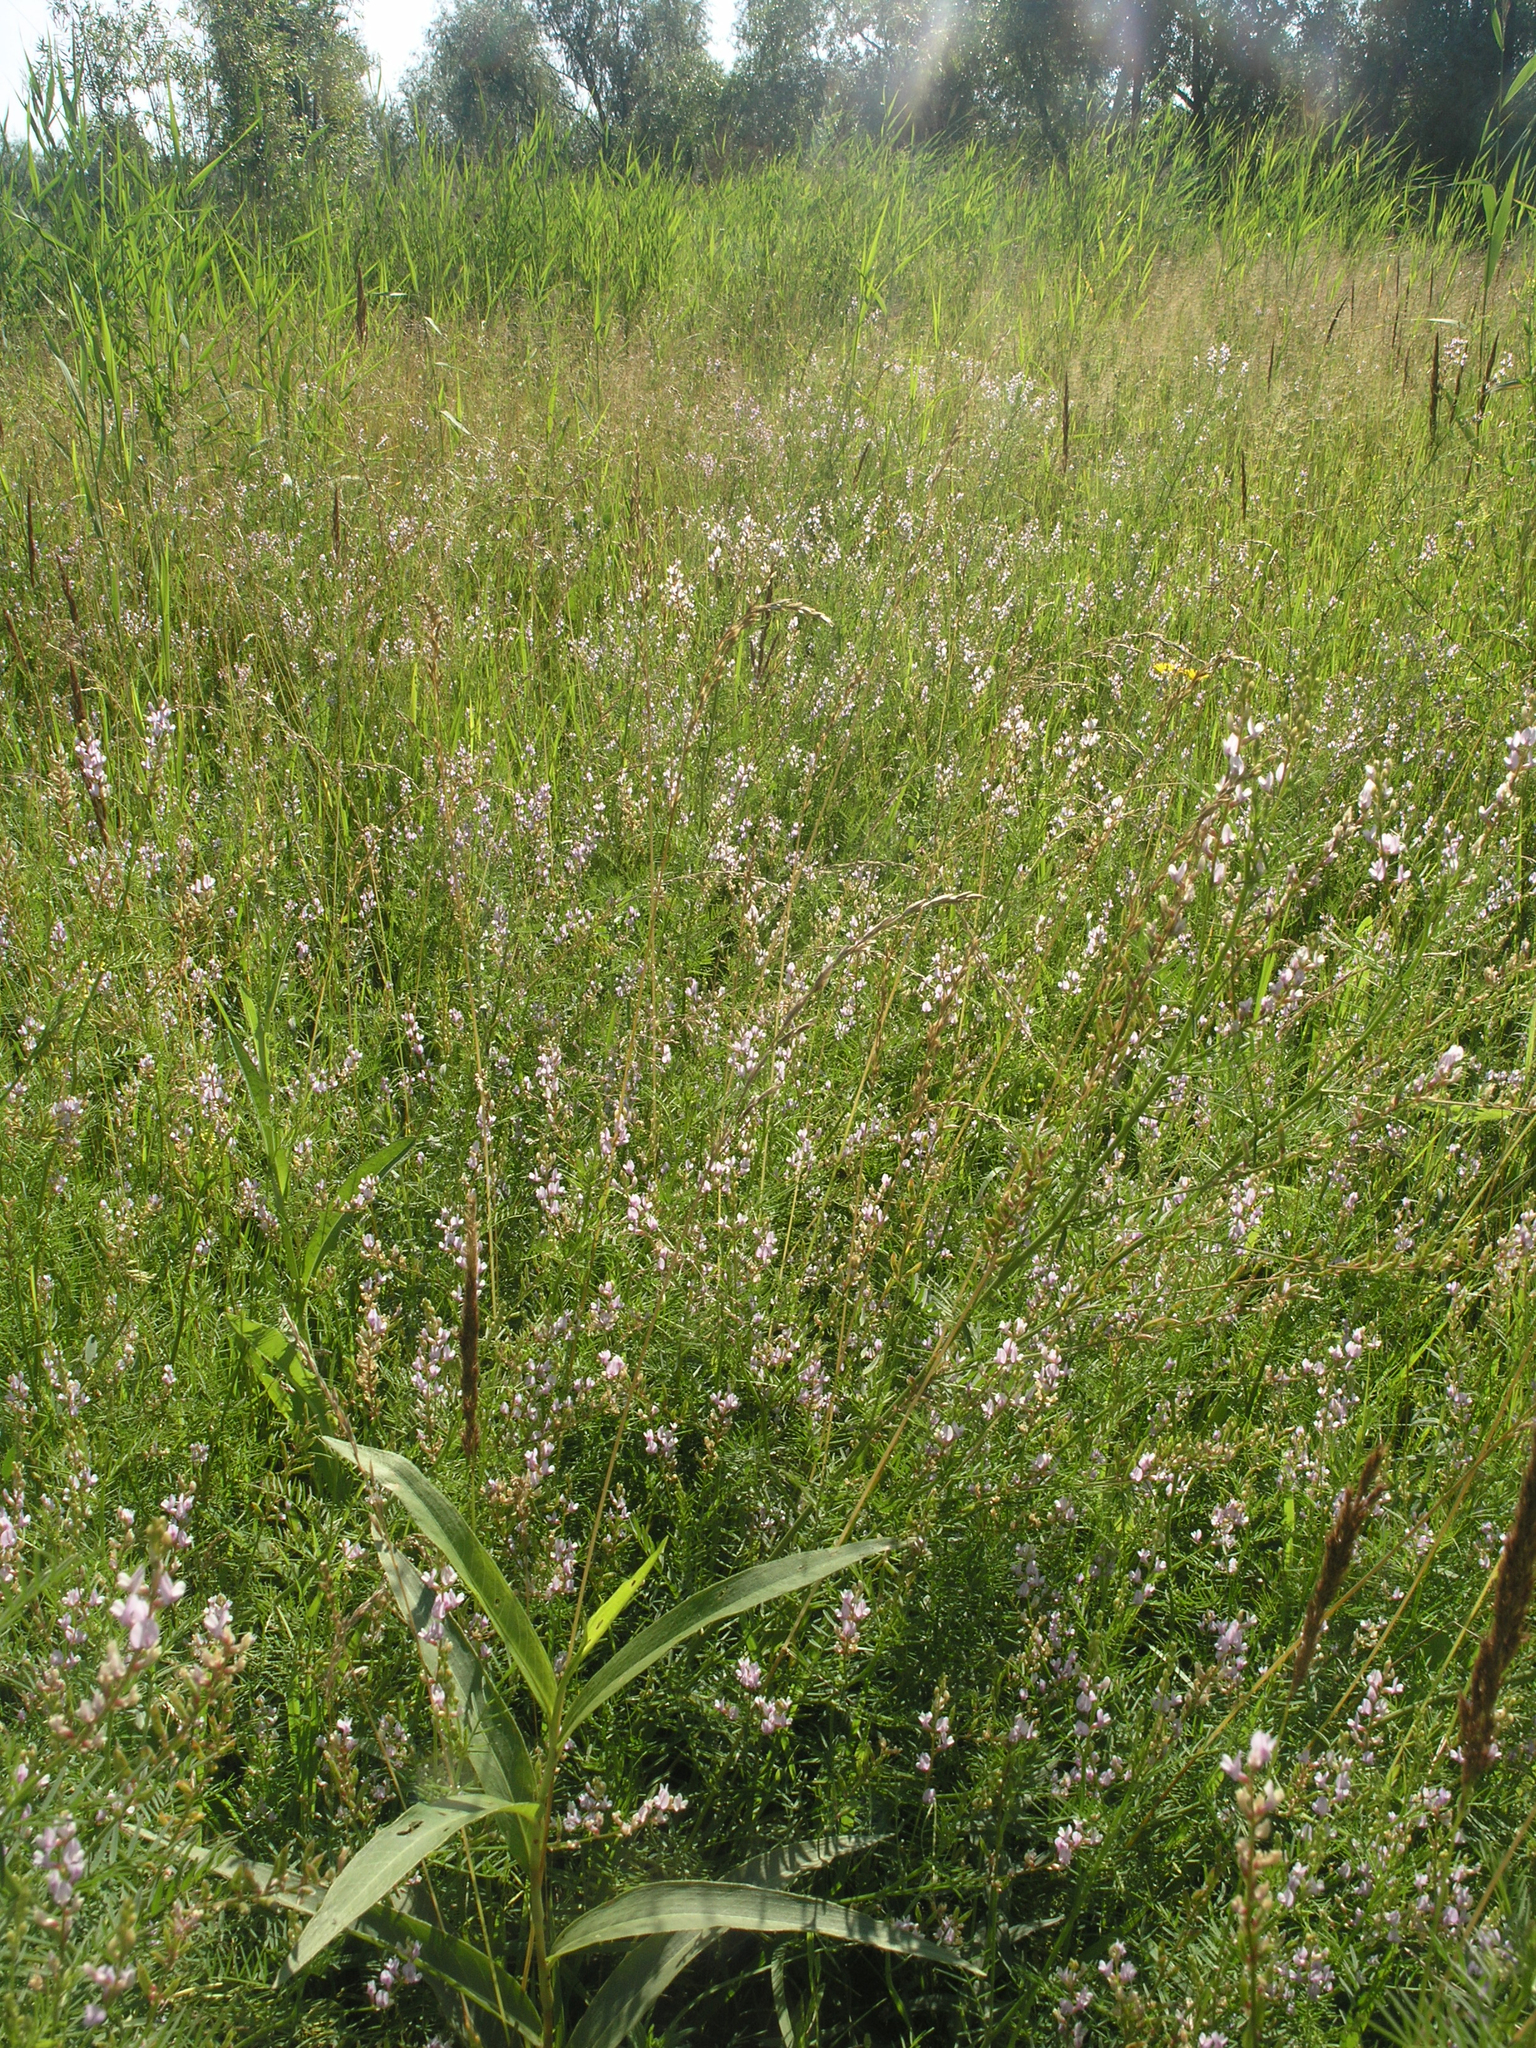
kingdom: Plantae
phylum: Tracheophyta
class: Magnoliopsida
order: Fabales
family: Fabaceae
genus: Astragalus
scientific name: Astragalus sulcatus
